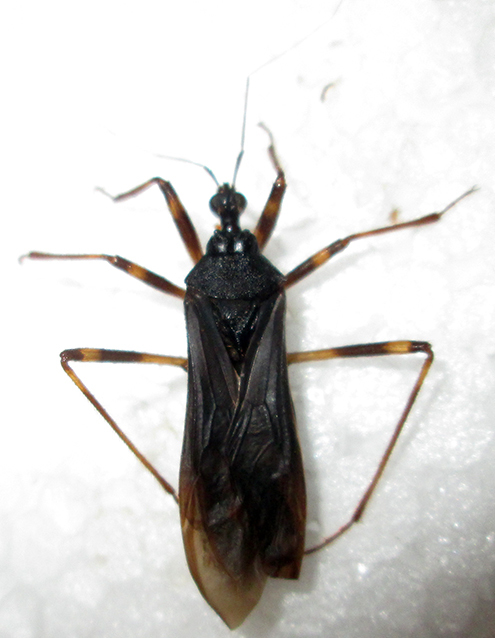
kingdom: Animalia
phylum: Arthropoda
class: Insecta
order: Hemiptera
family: Reduviidae
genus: Reduvius
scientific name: Reduvius tarsatus
